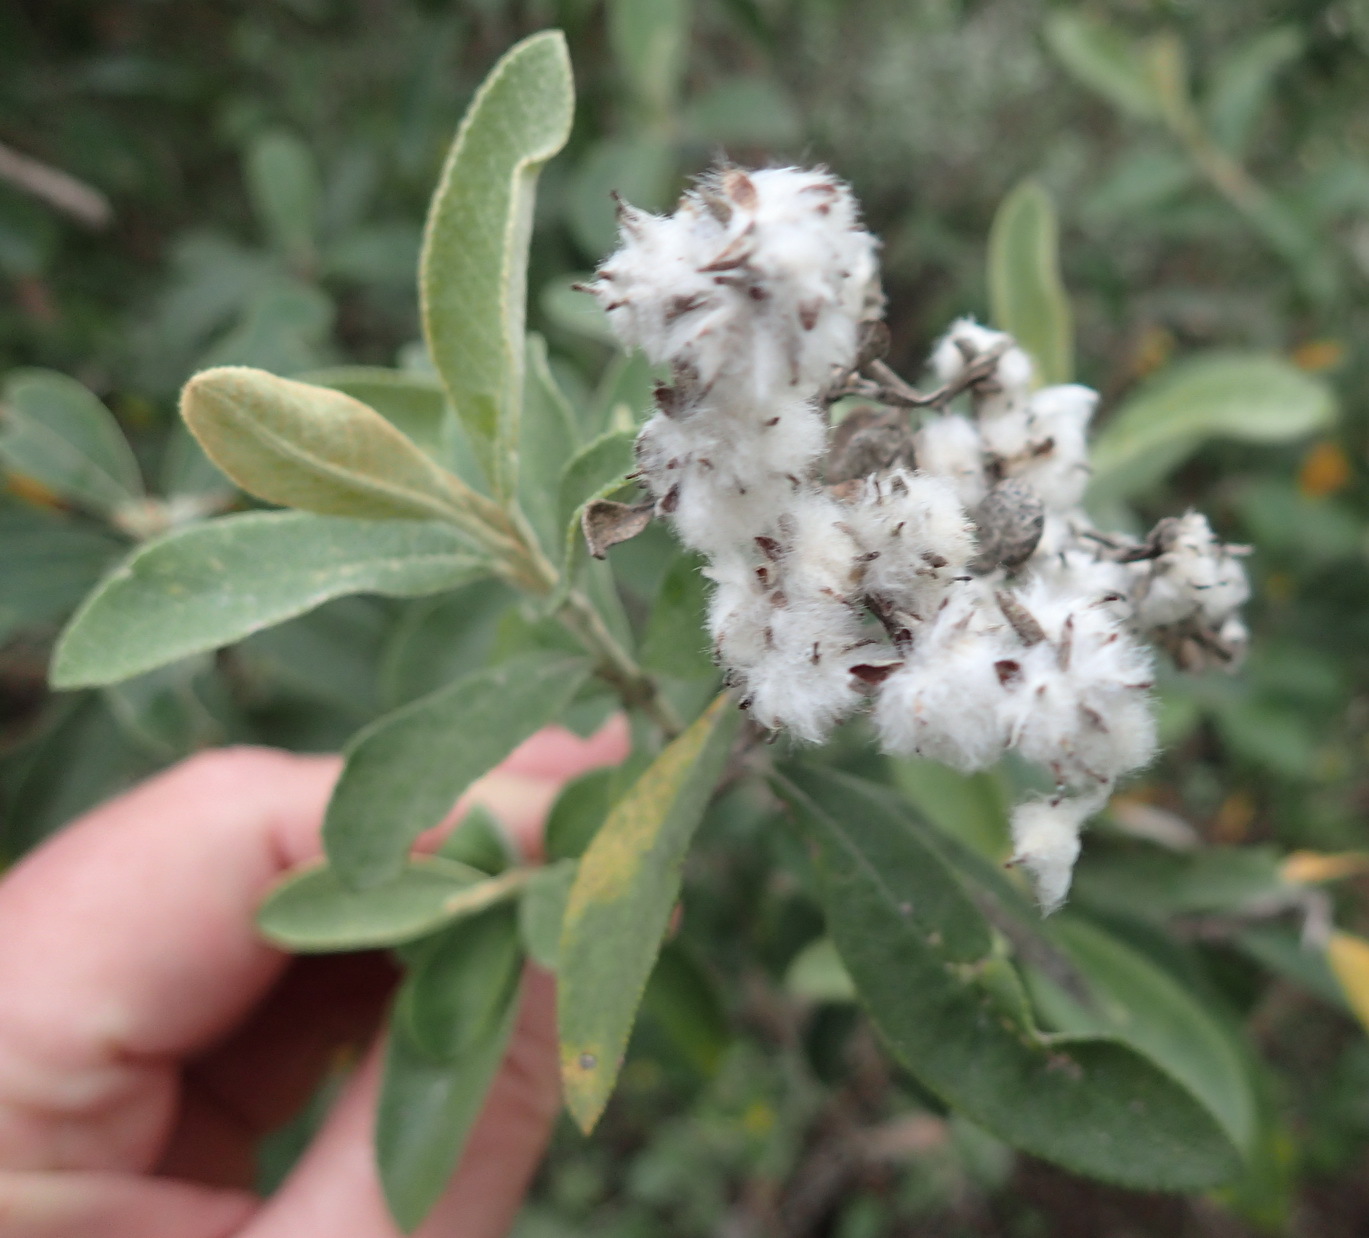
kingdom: Plantae
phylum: Tracheophyta
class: Magnoliopsida
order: Asterales
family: Asteraceae
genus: Tarchonanthus
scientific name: Tarchonanthus littoralis
